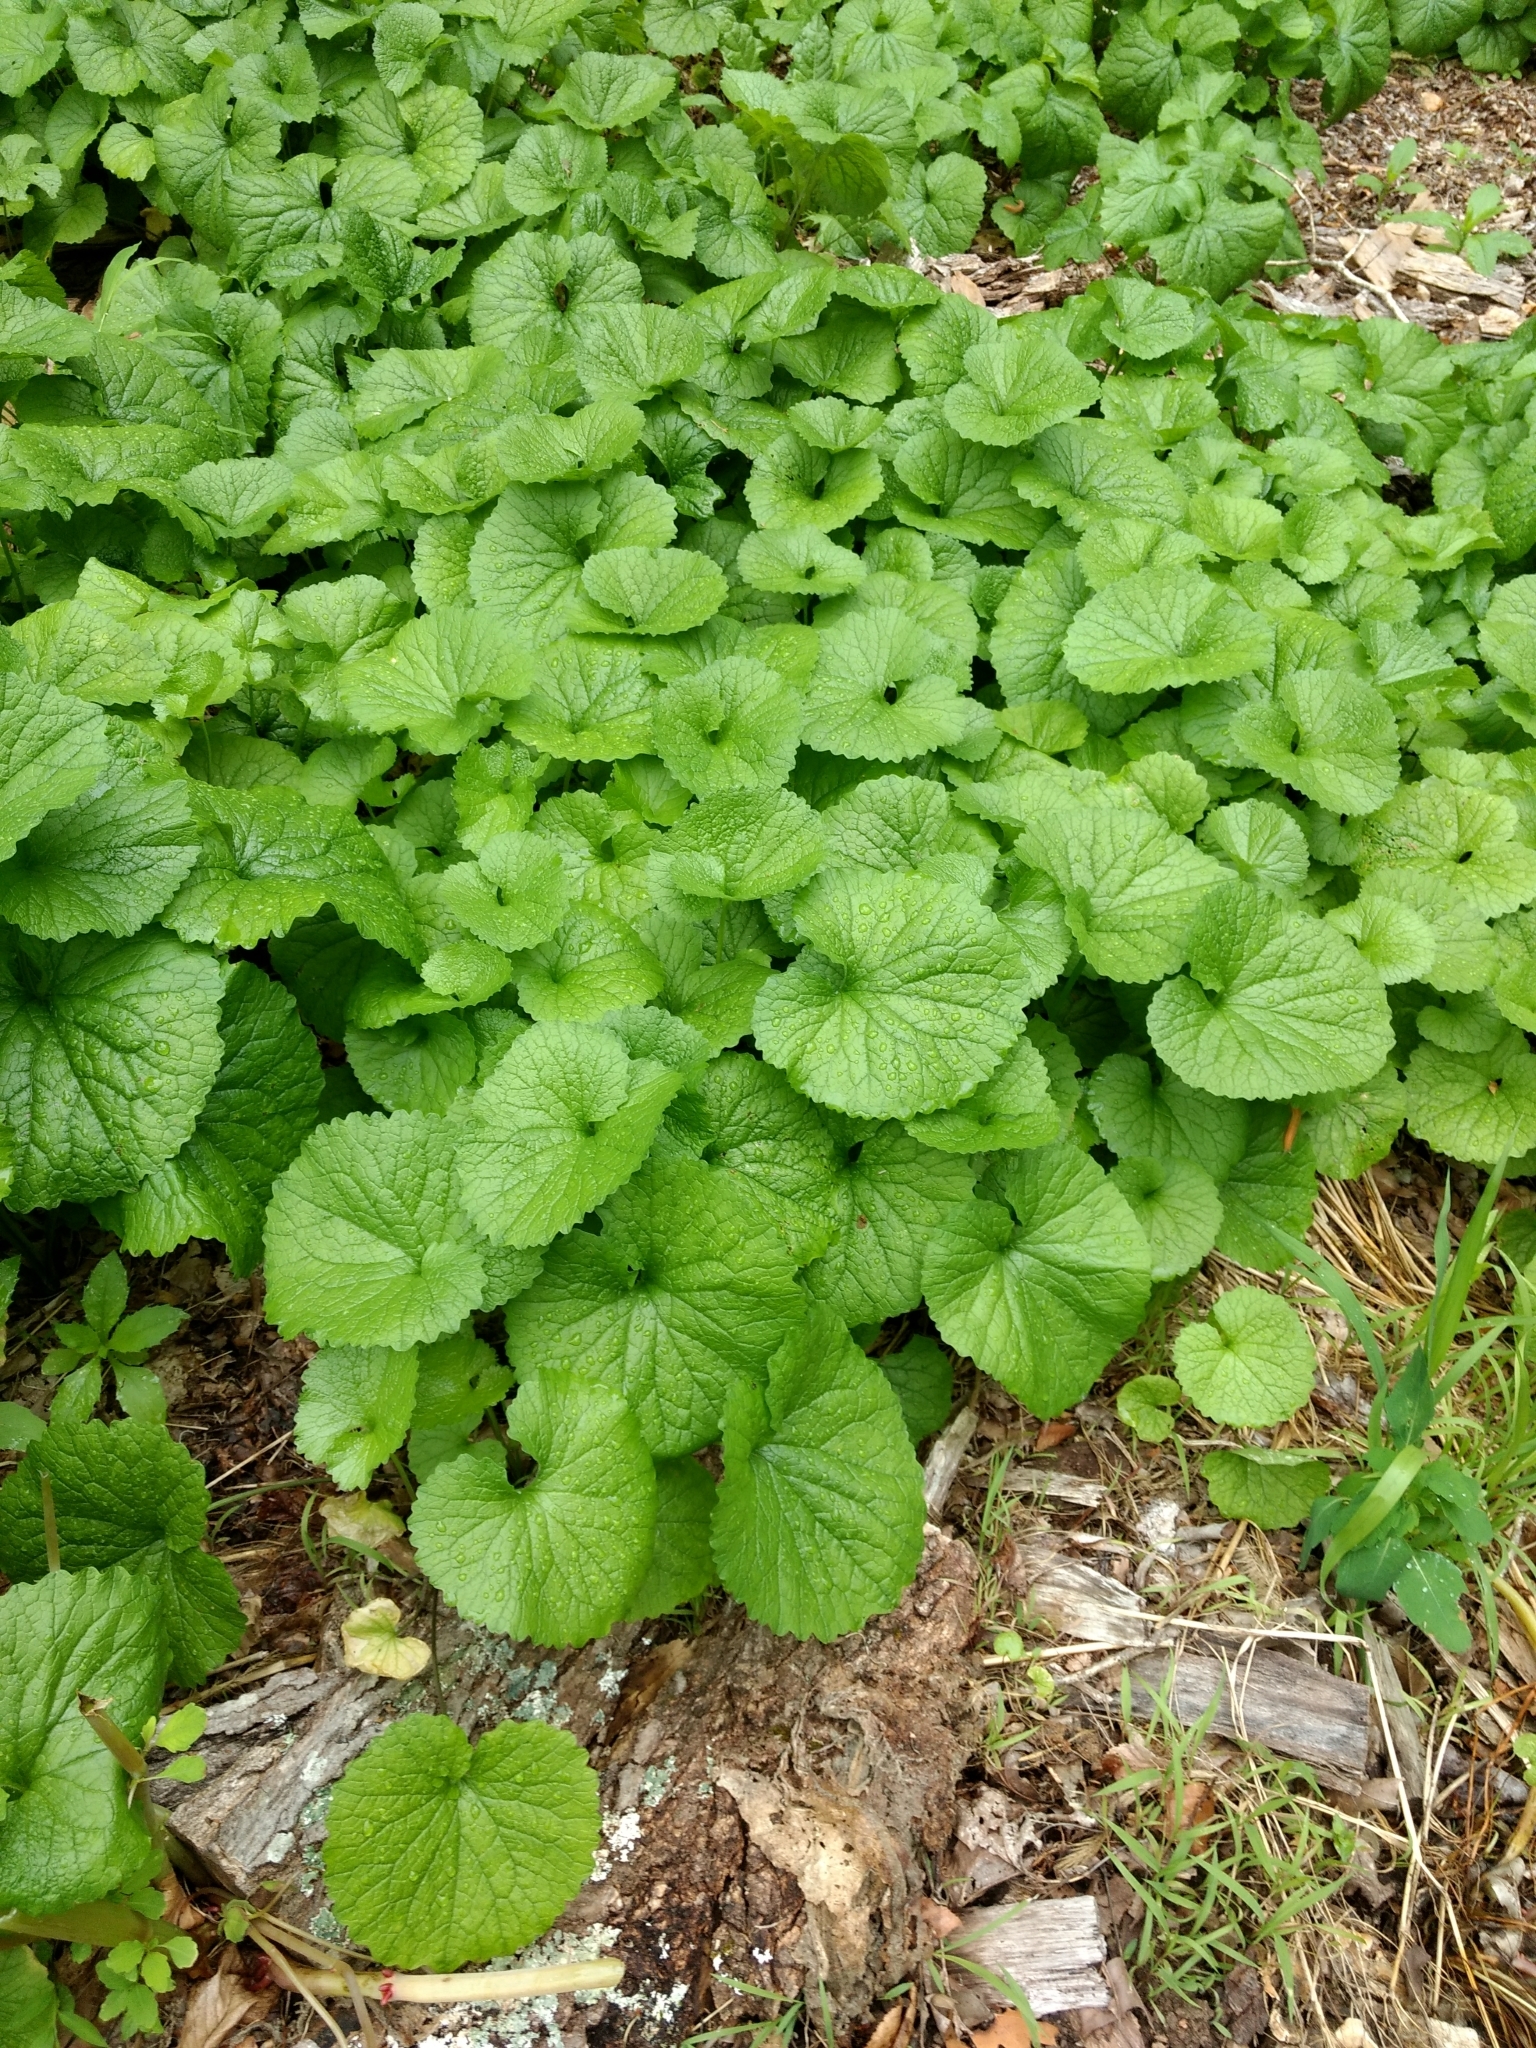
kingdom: Plantae
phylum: Tracheophyta
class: Magnoliopsida
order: Brassicales
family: Brassicaceae
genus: Alliaria
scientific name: Alliaria petiolata
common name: Garlic mustard
